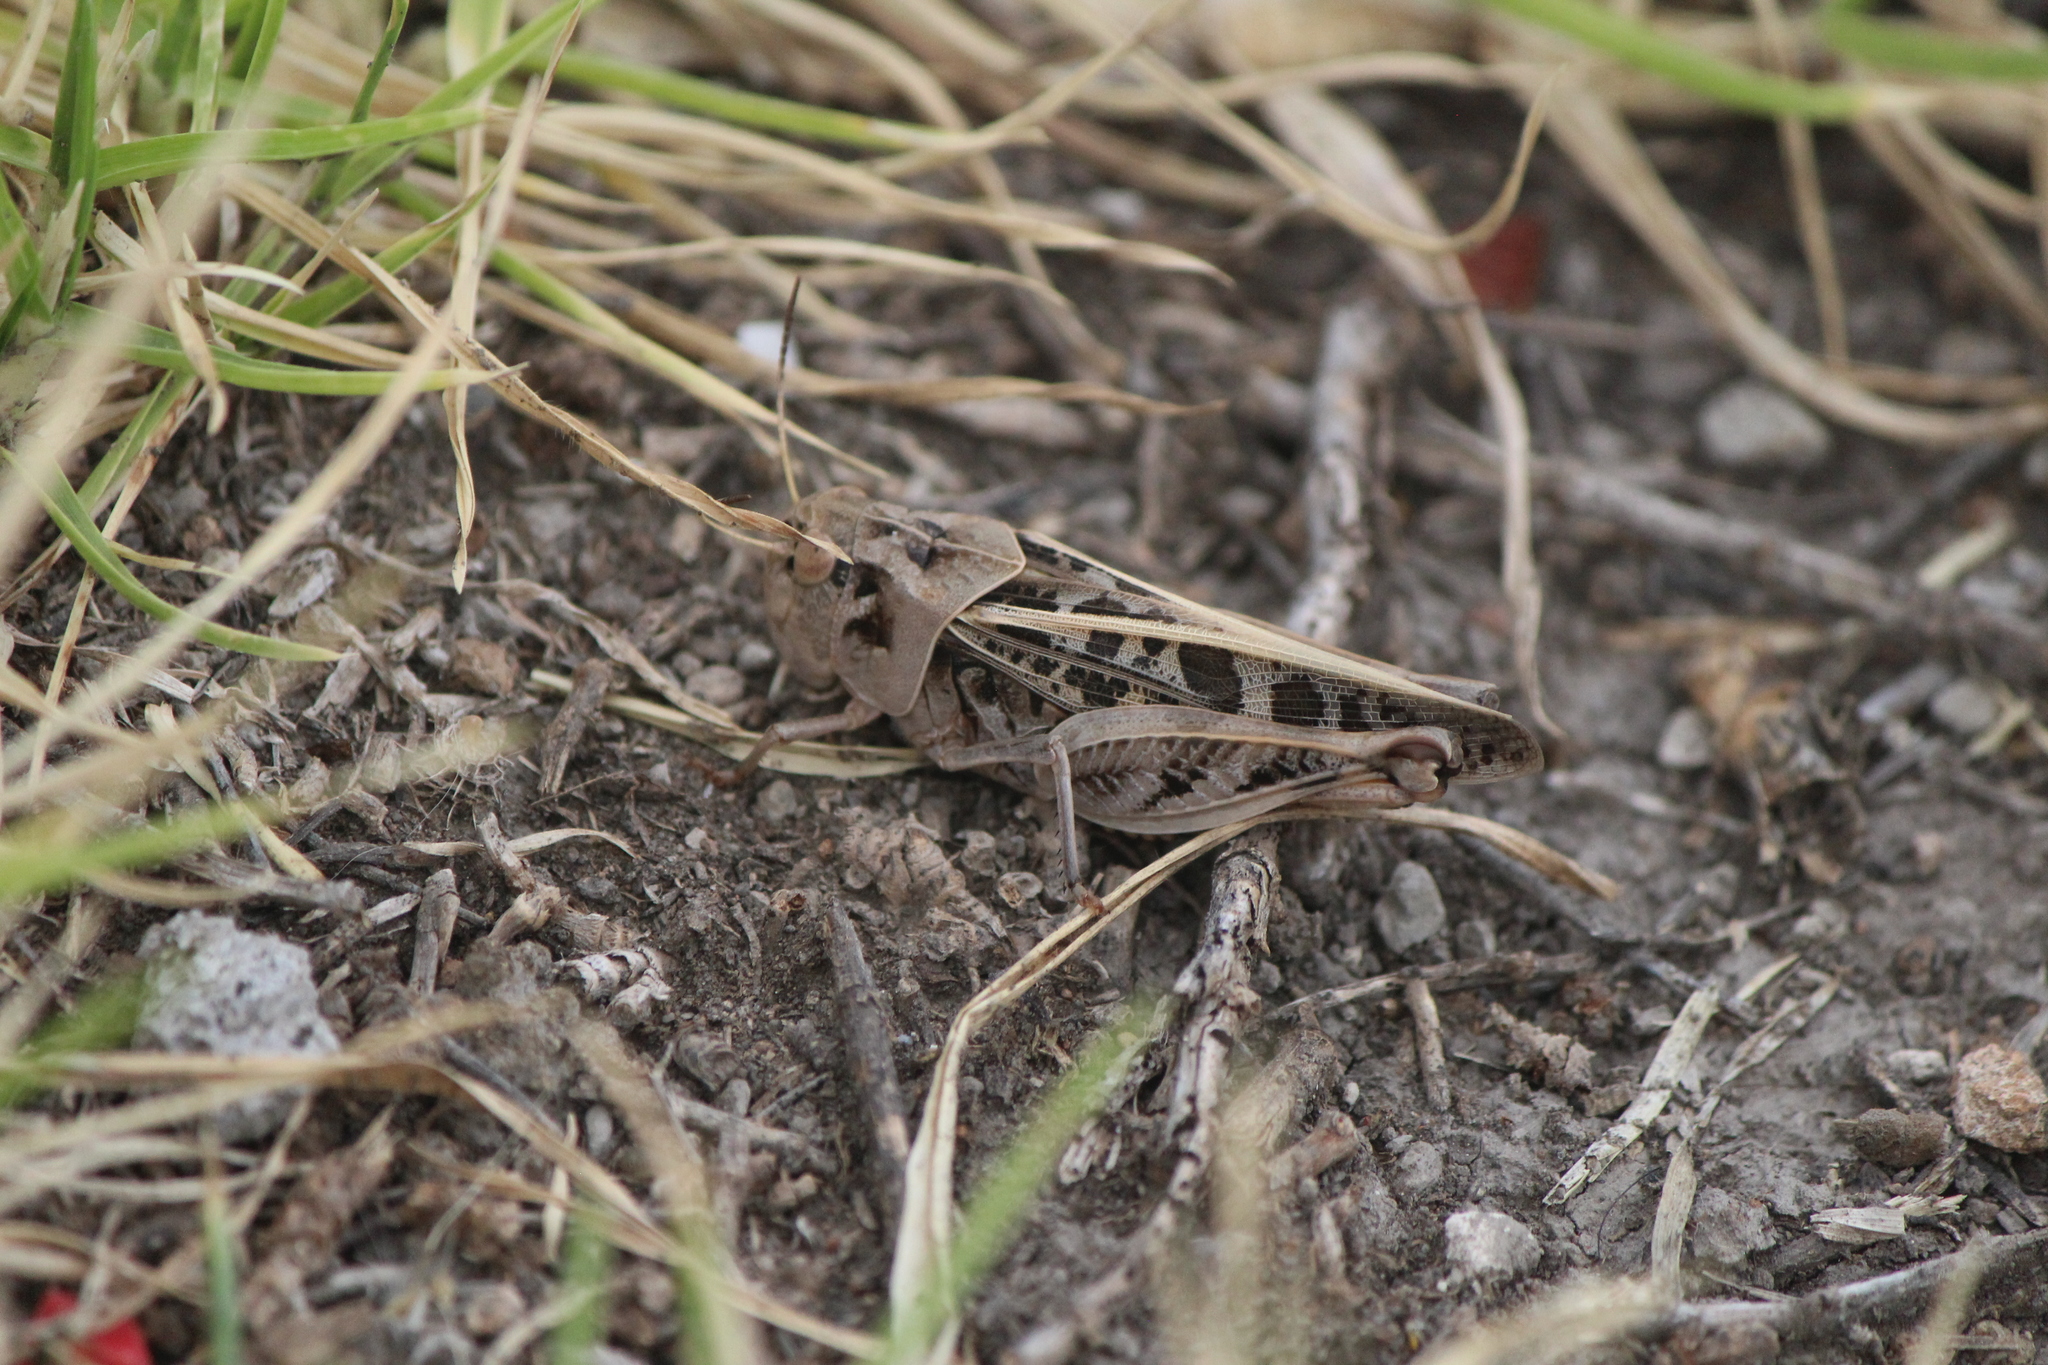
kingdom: Animalia
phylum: Arthropoda
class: Insecta
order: Orthoptera
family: Acrididae
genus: Hippiscus
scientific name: Hippiscus ocelote
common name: Wrinkled grasshopper
